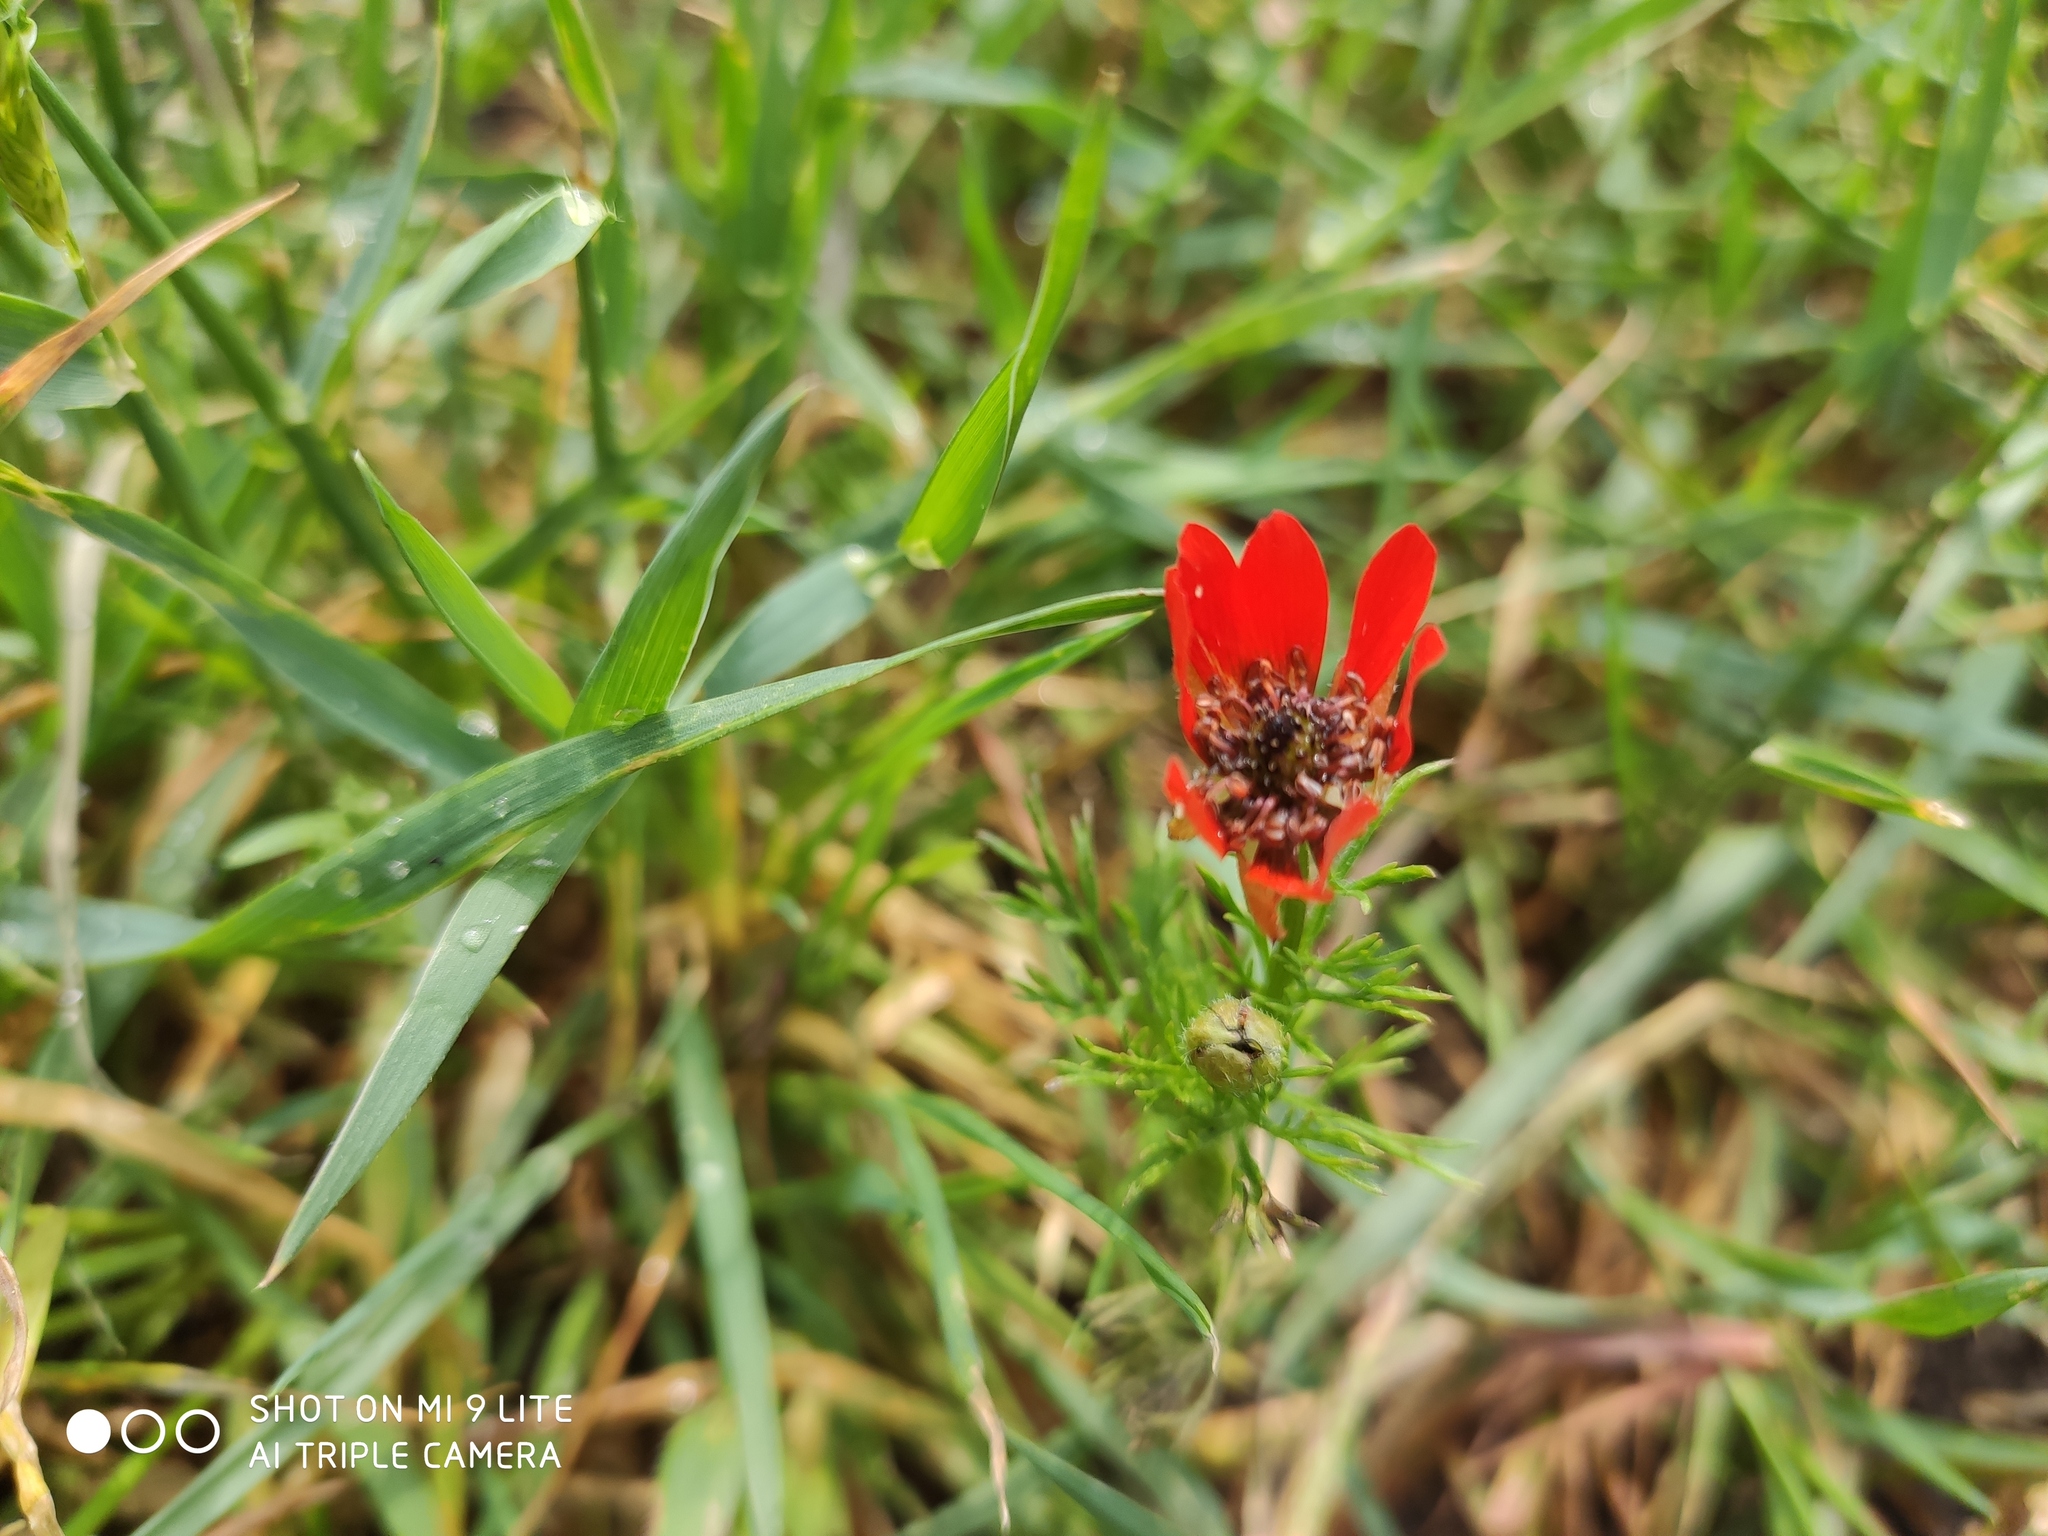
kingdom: Plantae
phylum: Tracheophyta
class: Magnoliopsida
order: Ranunculales
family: Ranunculaceae
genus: Adonis
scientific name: Adonis aestivalis
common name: Summer pheasant's-eye
